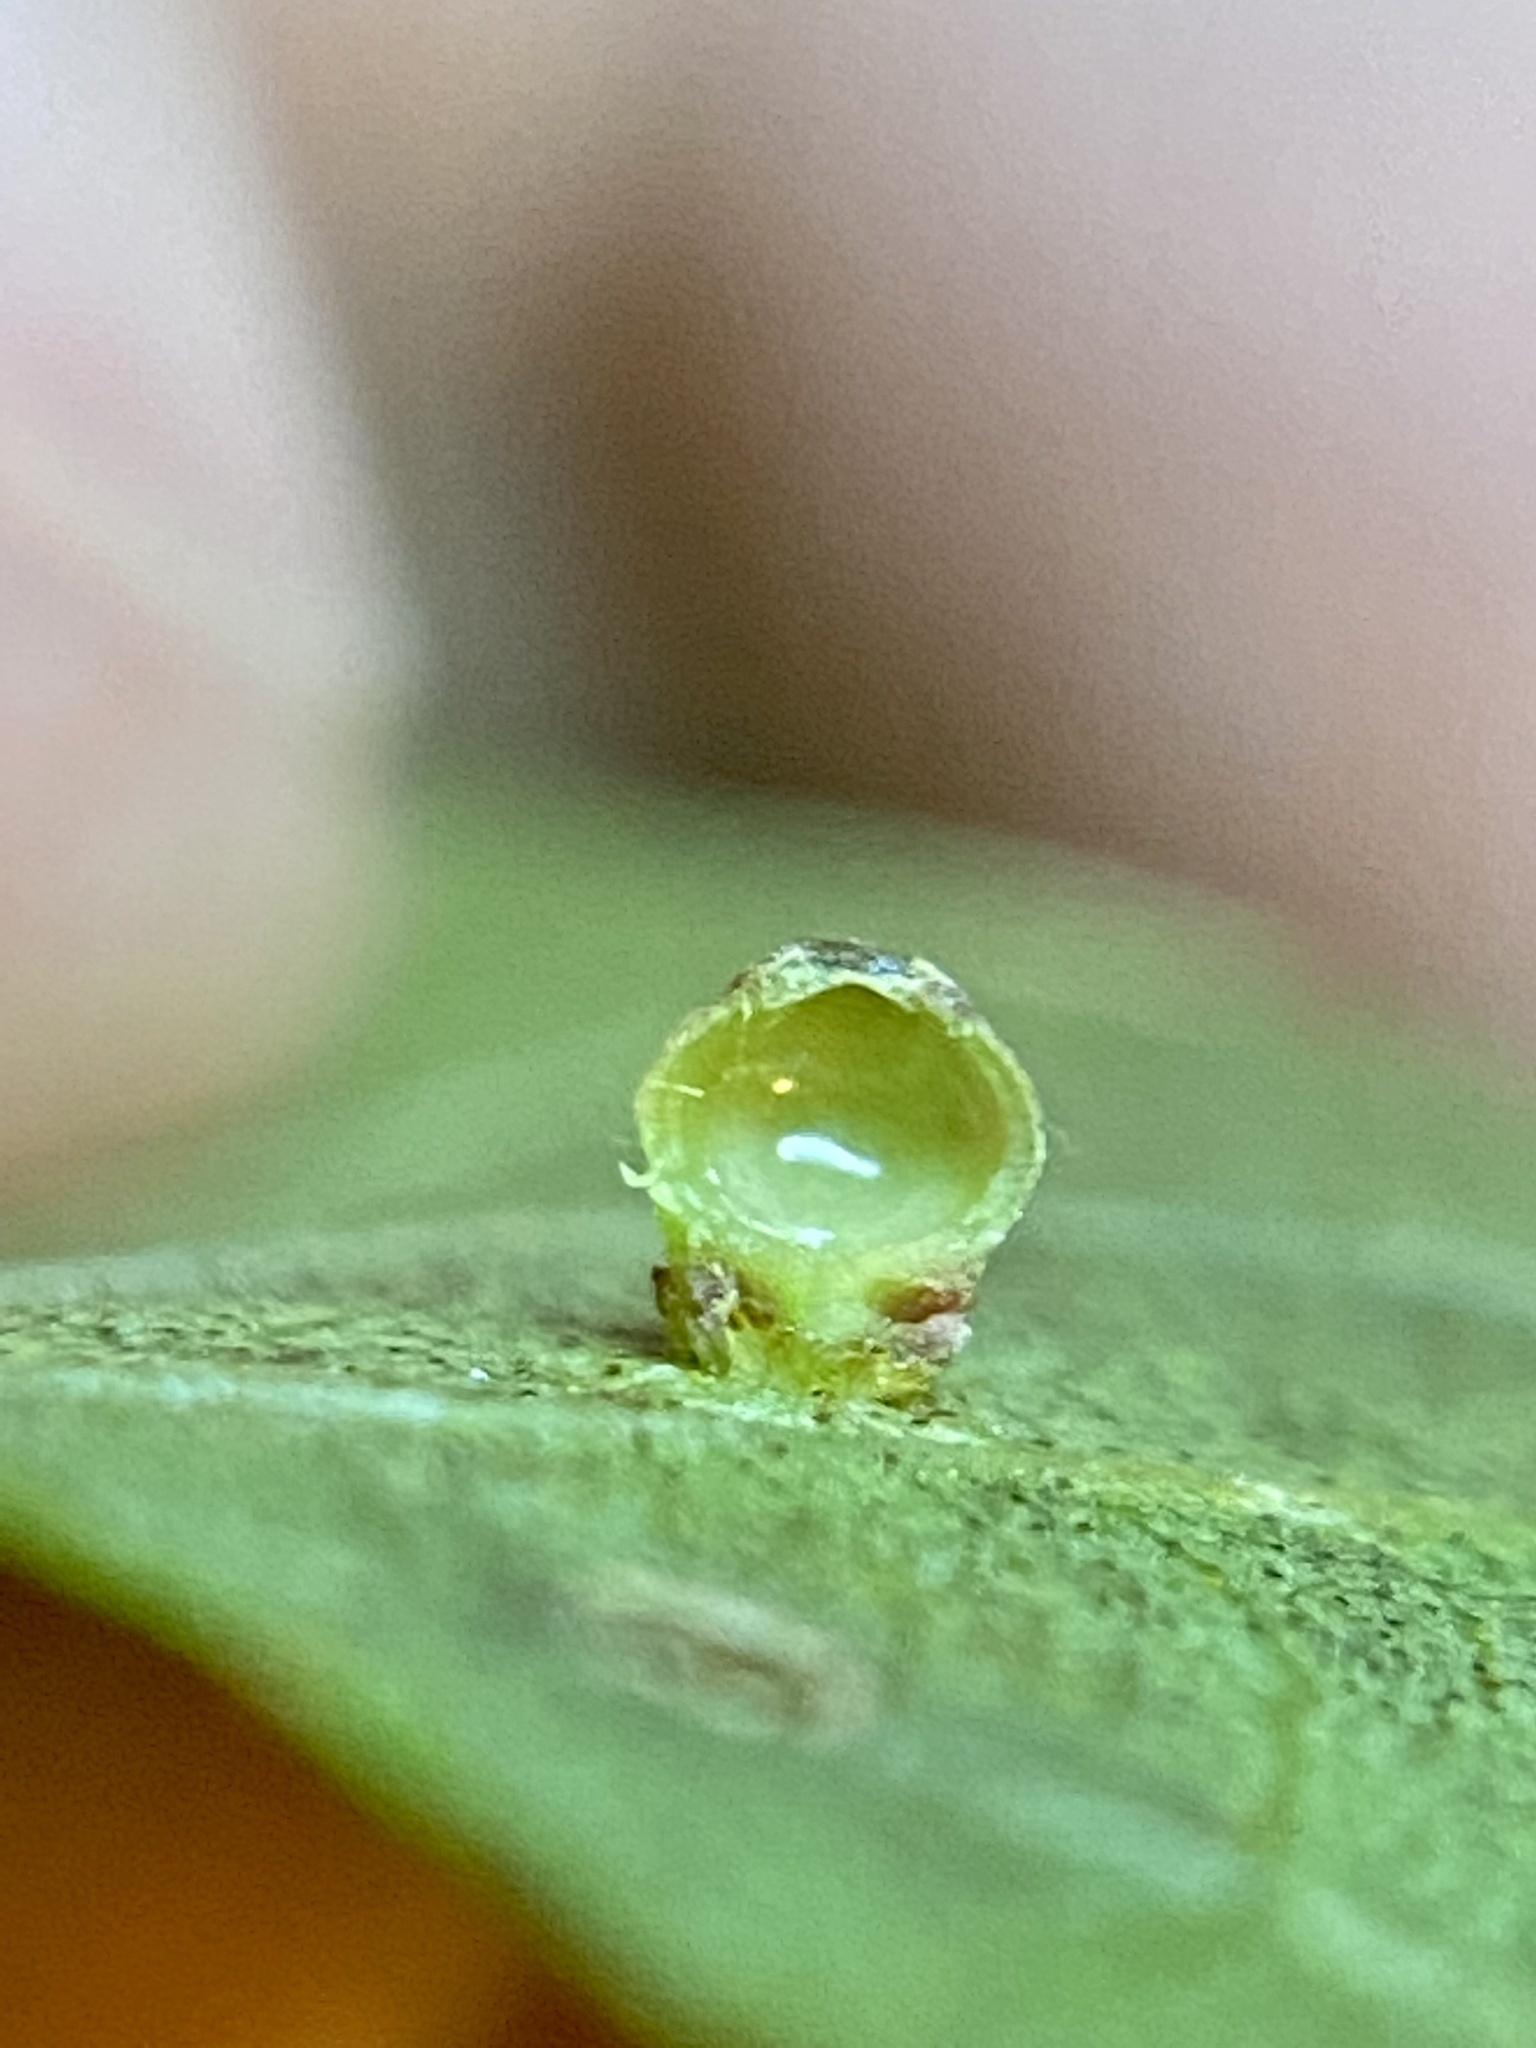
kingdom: Animalia
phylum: Arthropoda
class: Insecta
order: Diptera
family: Cecidomyiidae
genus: Caryomyia
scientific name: Caryomyia caryae
